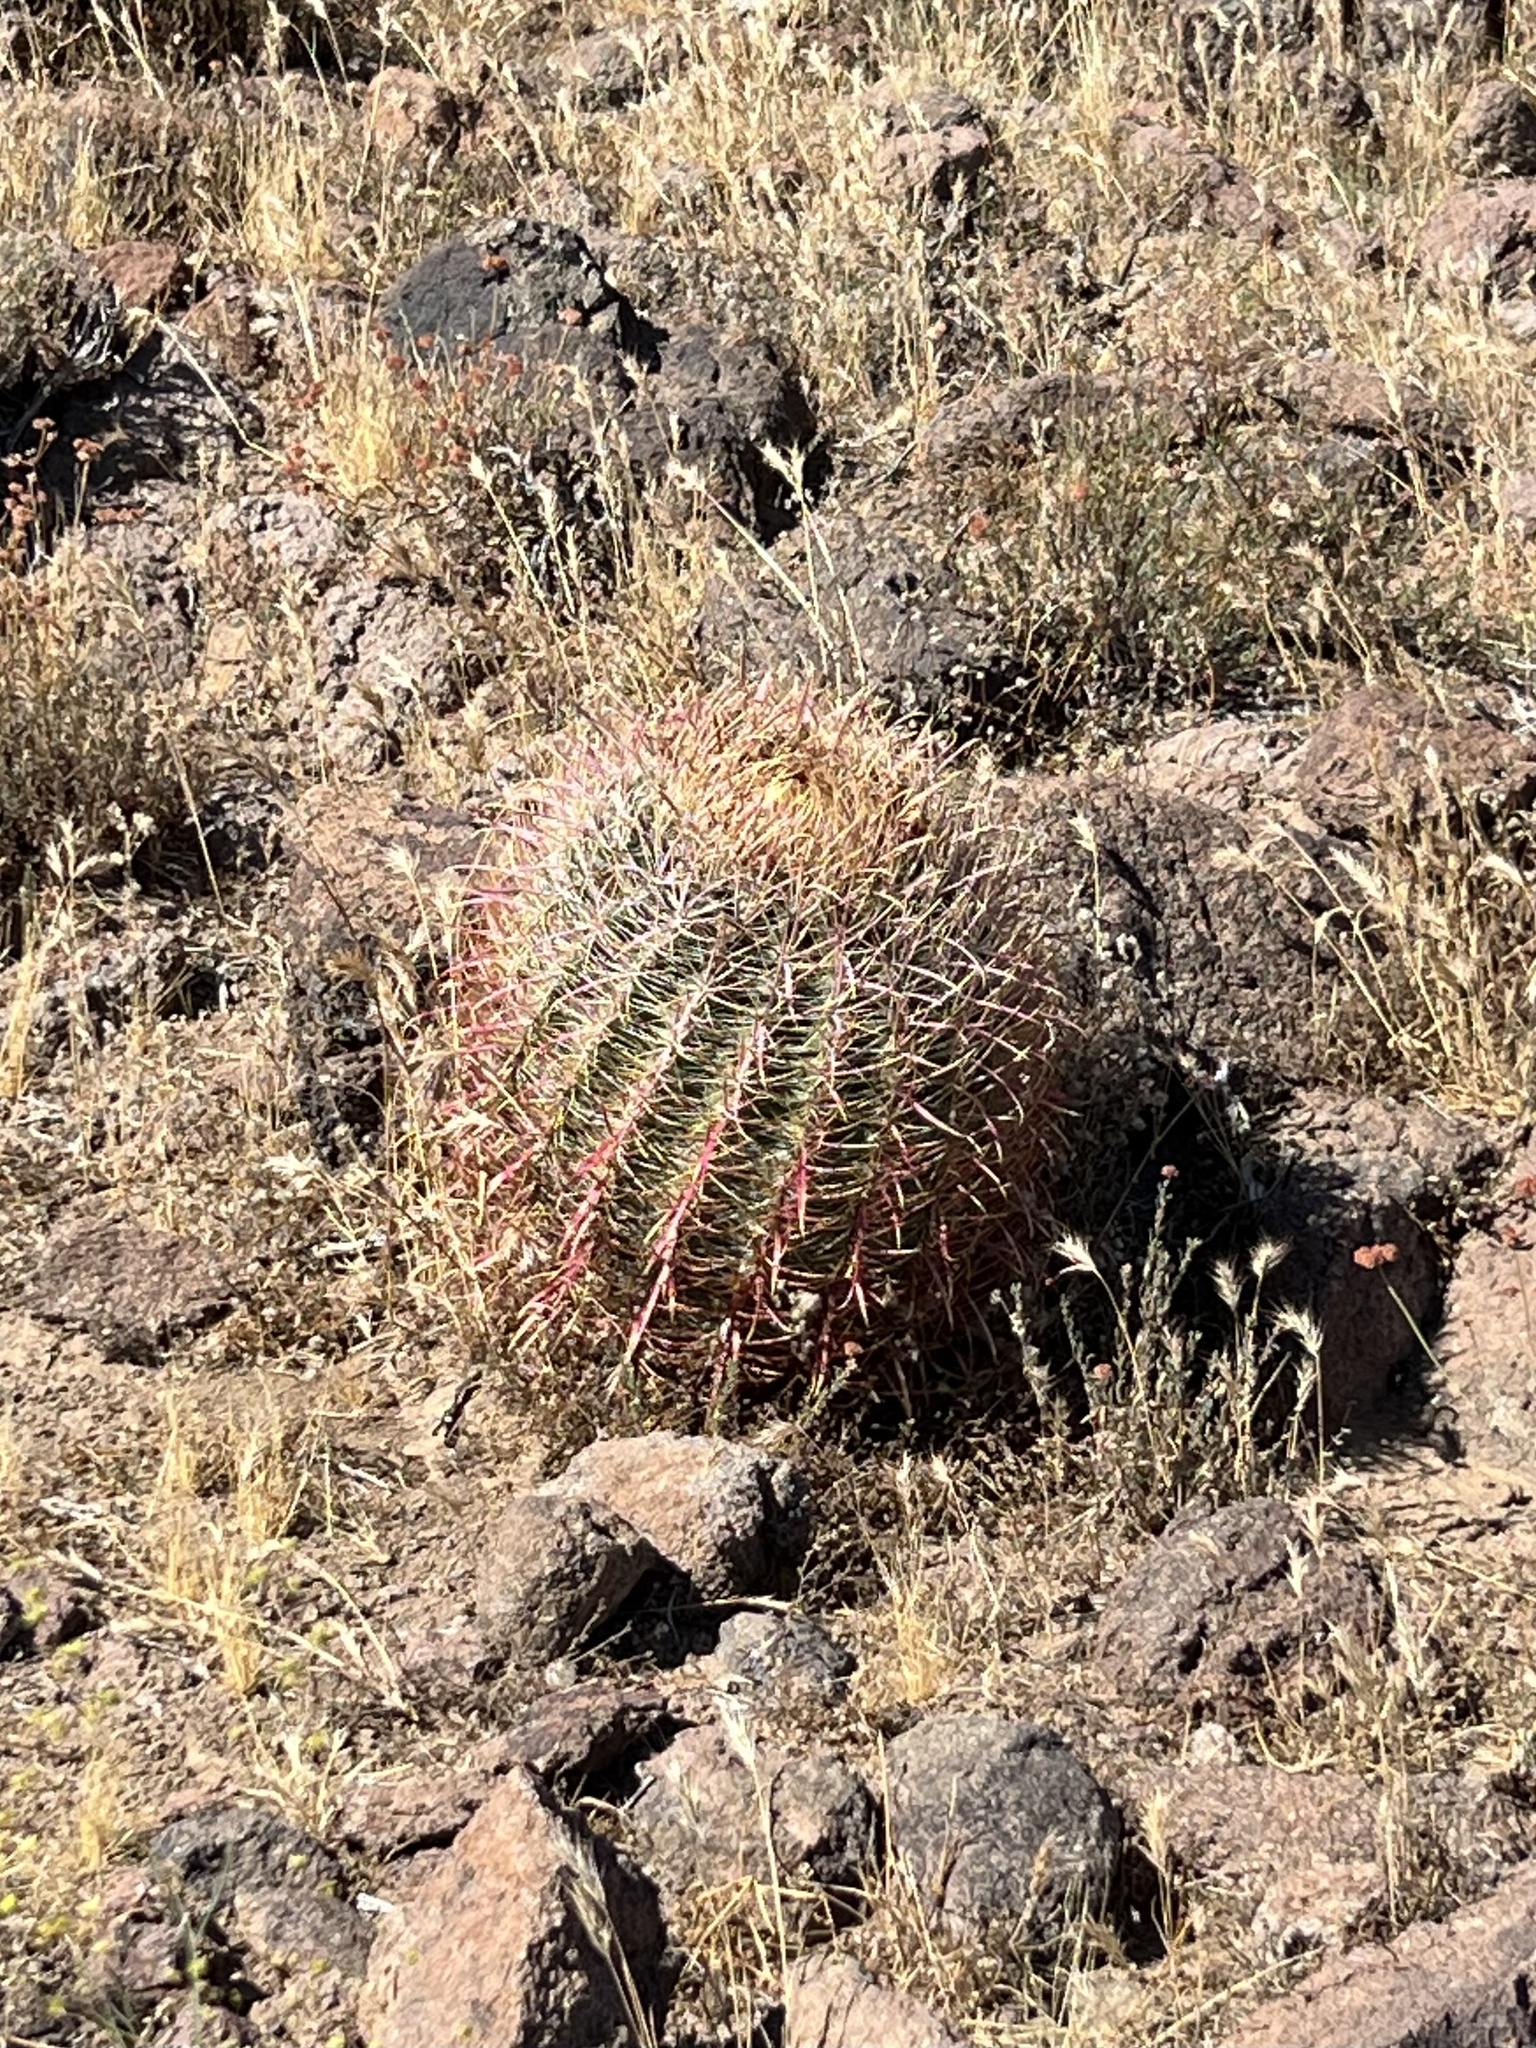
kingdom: Plantae
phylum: Tracheophyta
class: Magnoliopsida
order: Caryophyllales
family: Cactaceae
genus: Ferocactus
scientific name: Ferocactus cylindraceus
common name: California barrel cactus
